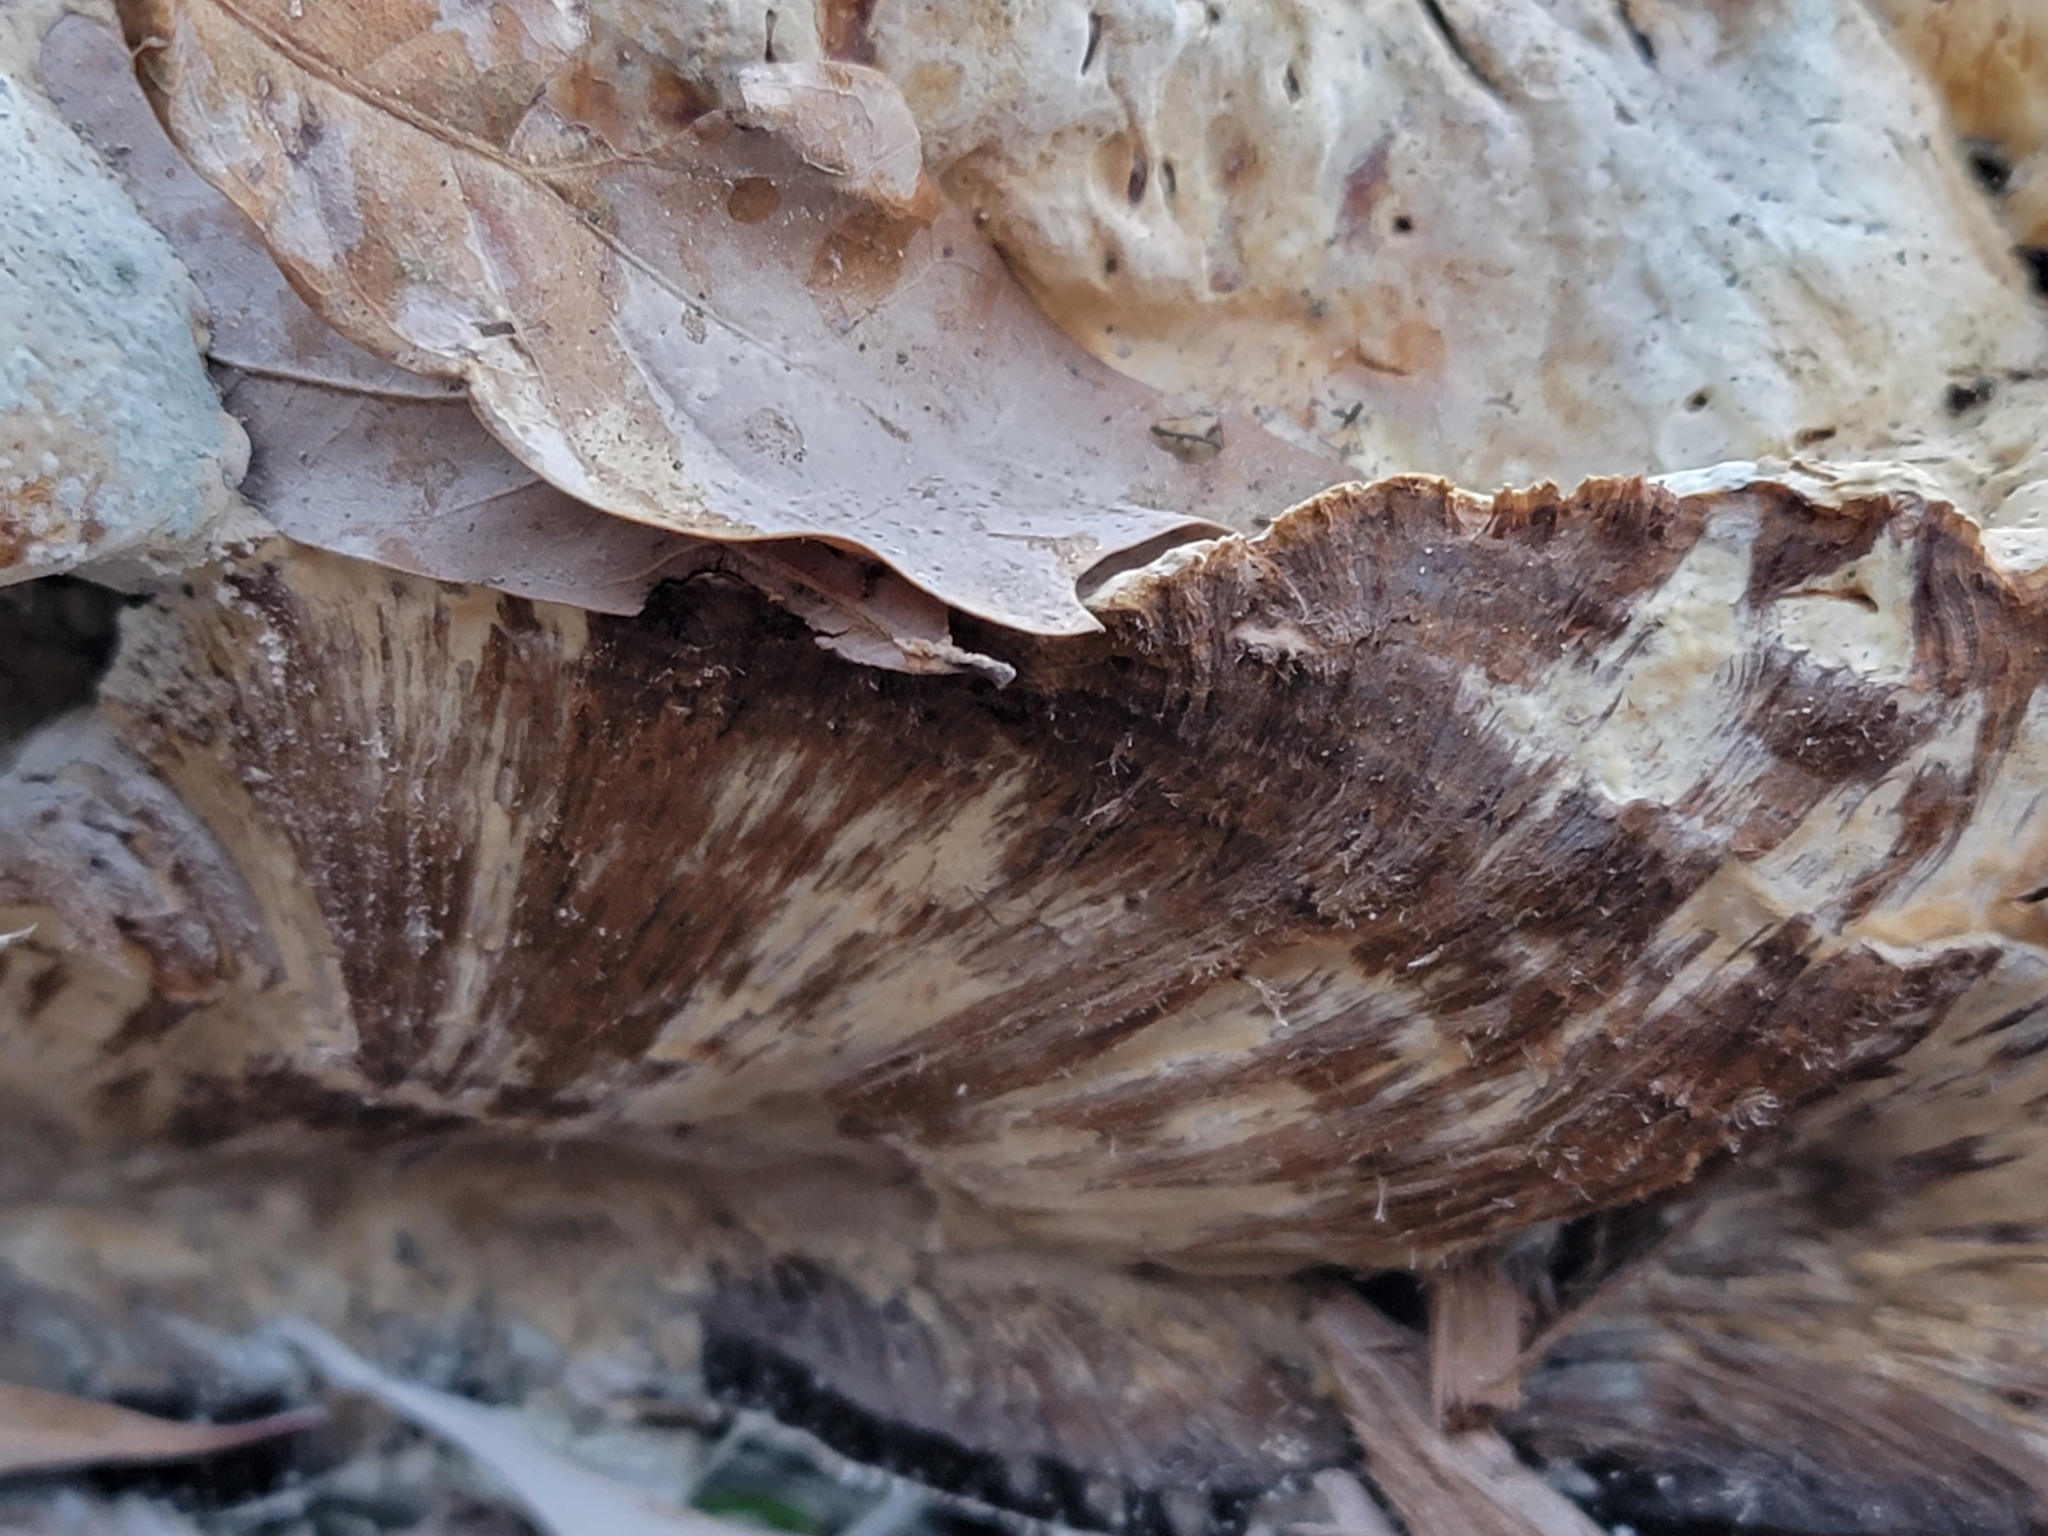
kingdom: Fungi
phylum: Basidiomycota
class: Agaricomycetes
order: Hymenochaetales
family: Hymenochaetaceae
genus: Pseudoinonotus
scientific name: Pseudoinonotus dryadeus
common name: Oak bracket
